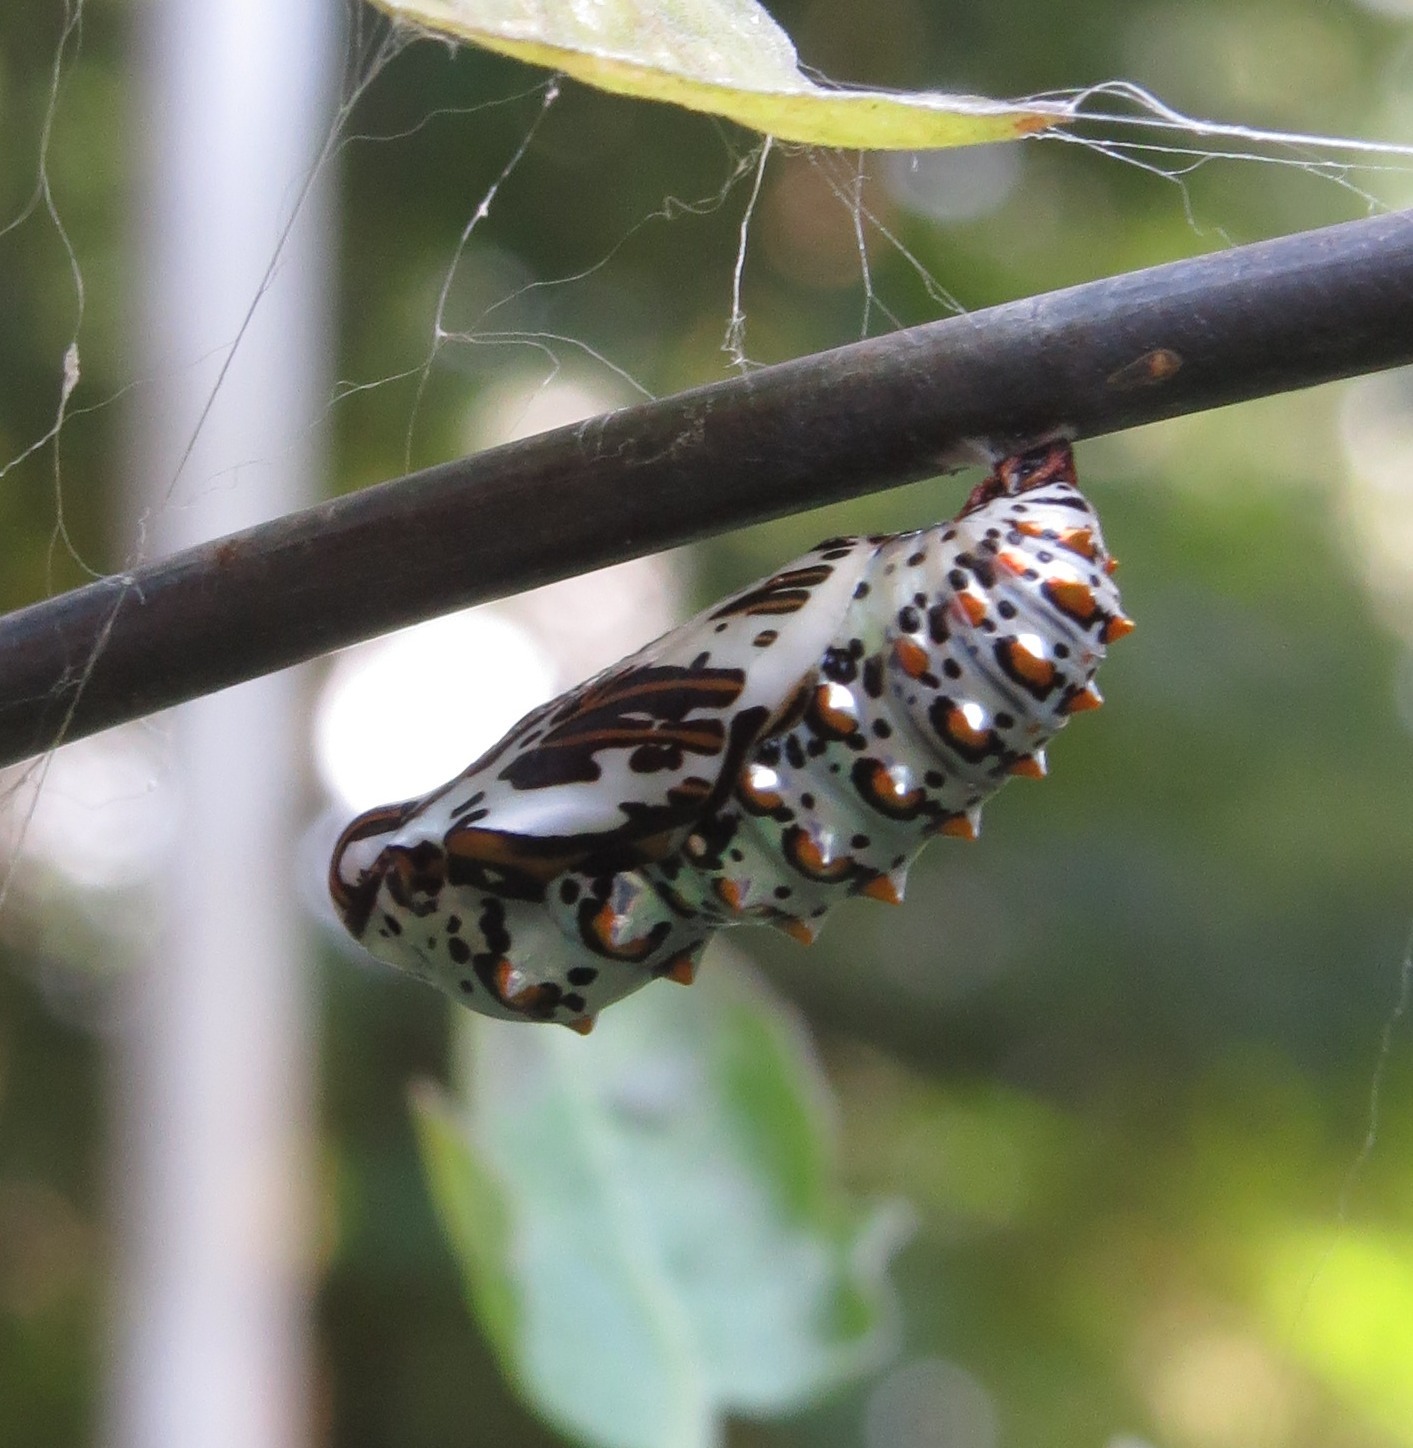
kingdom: Animalia
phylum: Arthropoda
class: Insecta
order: Lepidoptera
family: Nymphalidae
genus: Euptoieta
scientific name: Euptoieta claudia
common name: Variegated fritillary
